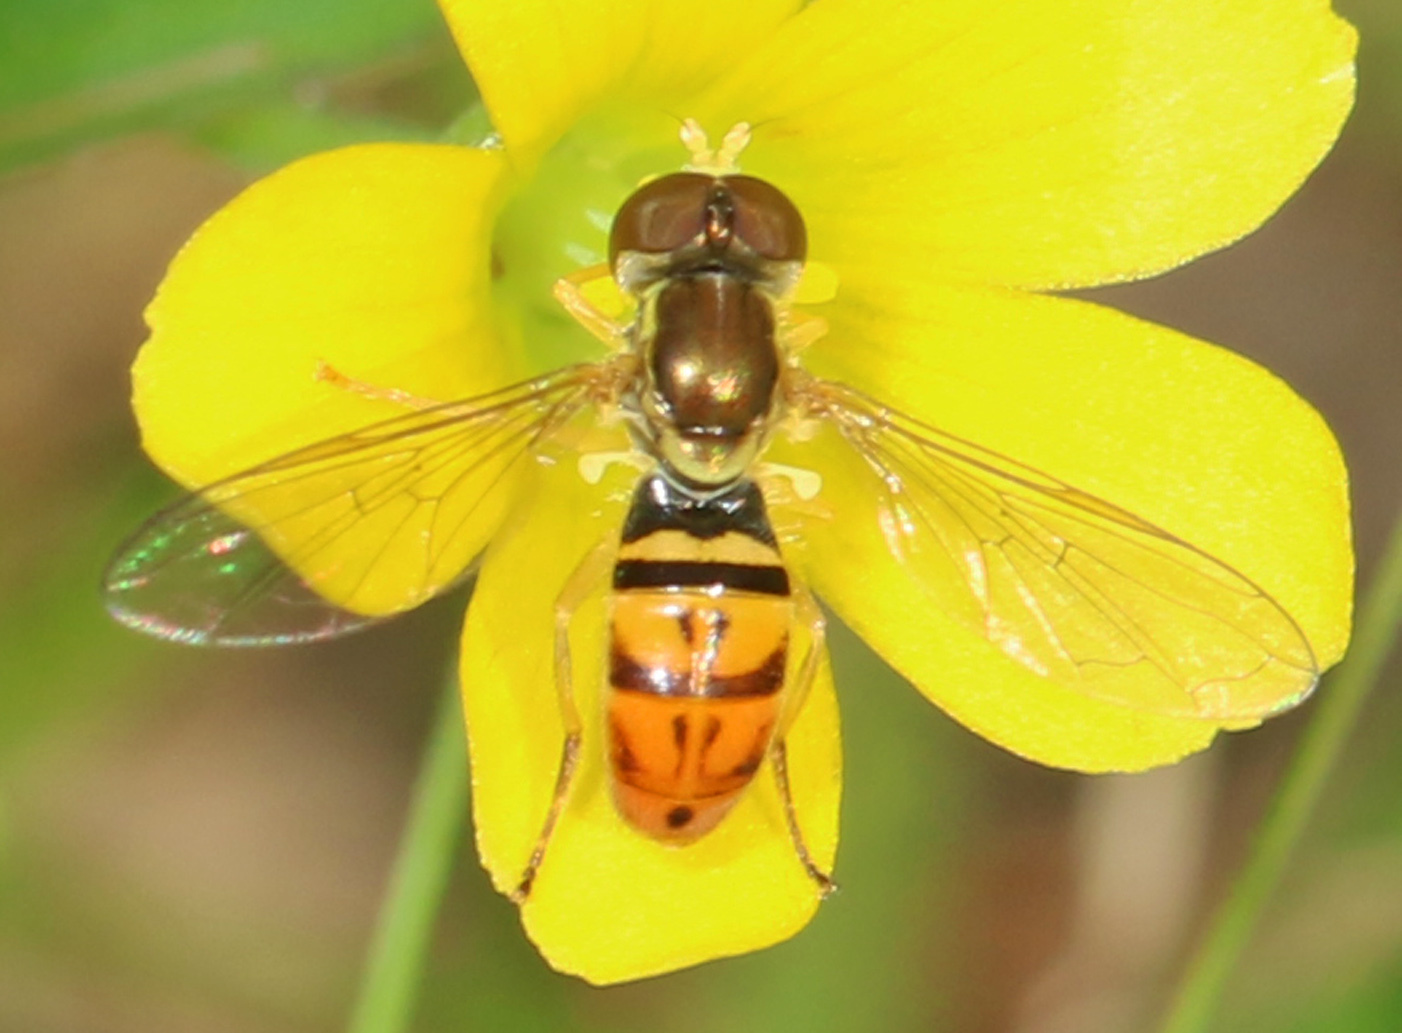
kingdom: Animalia
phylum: Arthropoda
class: Insecta
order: Diptera
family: Syrphidae
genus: Toxomerus
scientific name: Toxomerus marginatus
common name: Syrphid fly
